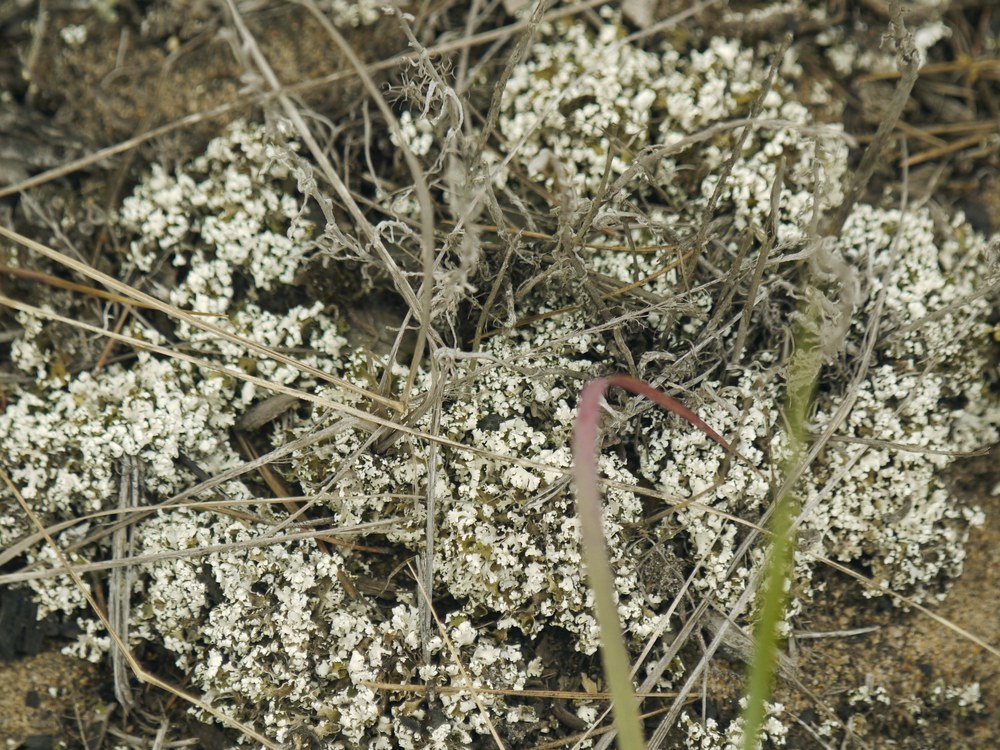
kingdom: Fungi
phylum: Ascomycota
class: Lecanoromycetes
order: Lecanorales
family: Cladoniaceae
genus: Cladonia
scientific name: Cladonia foliacea
